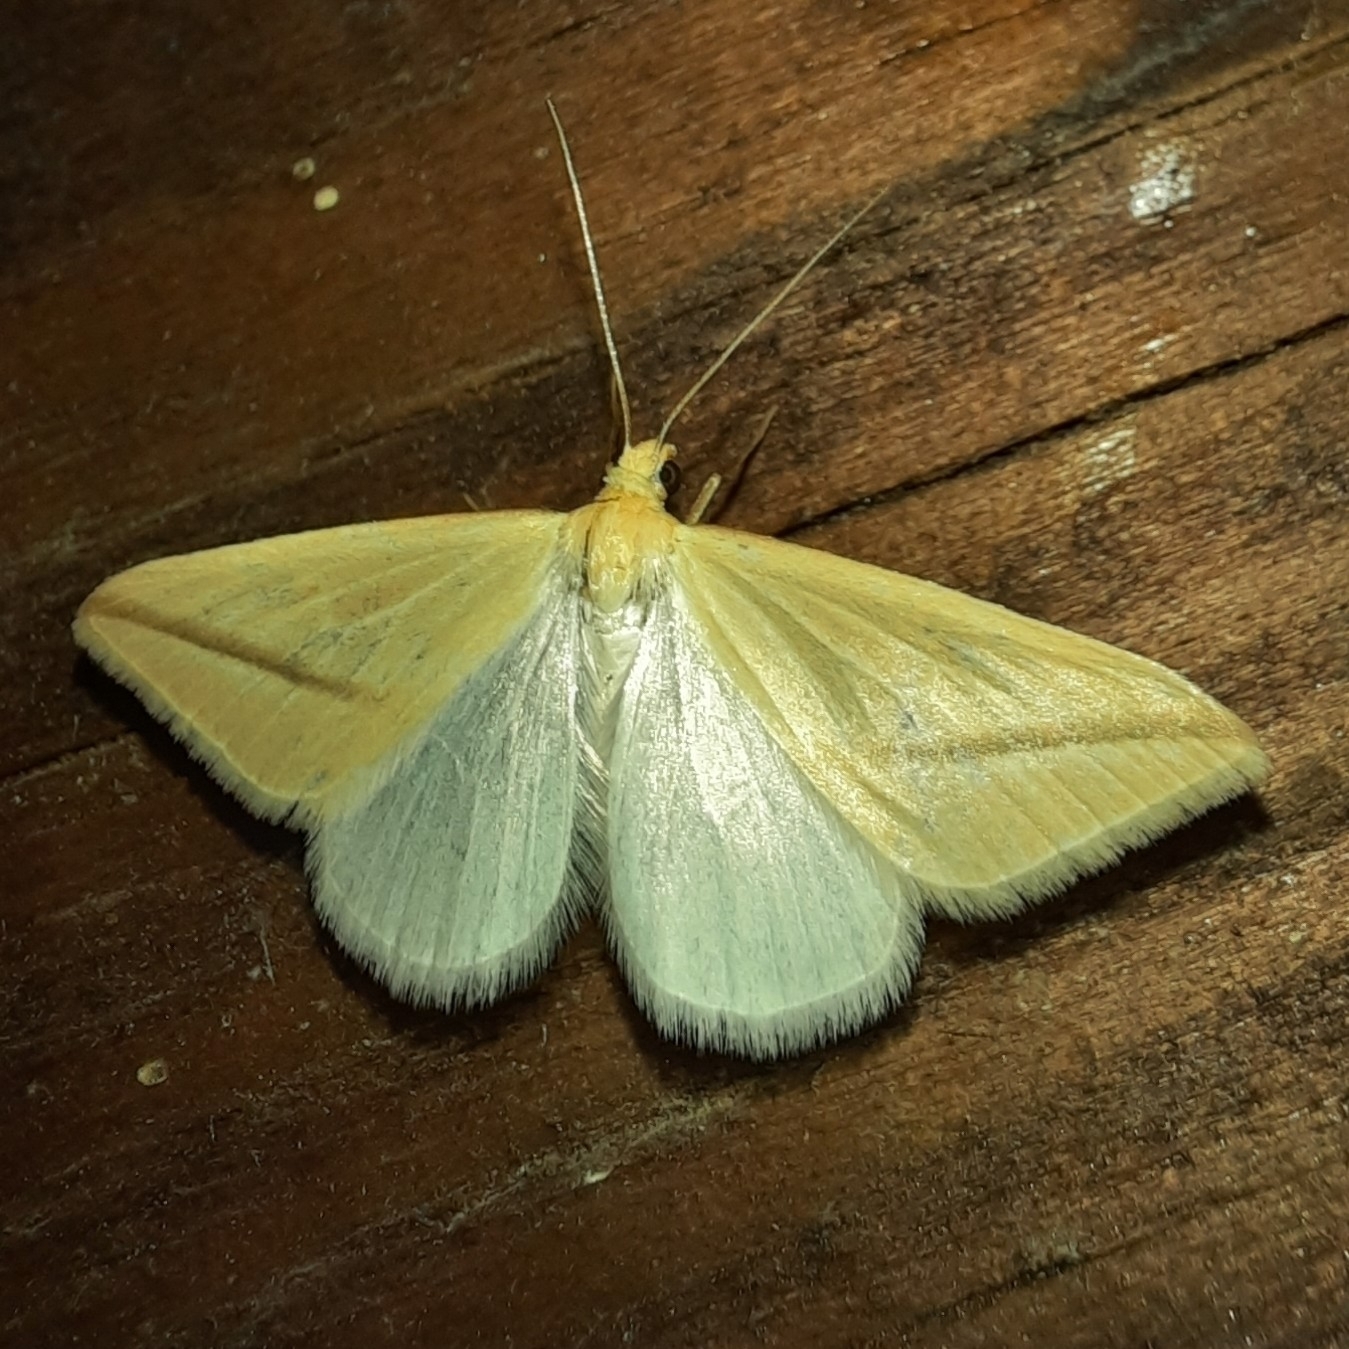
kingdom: Animalia
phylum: Arthropoda
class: Insecta
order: Lepidoptera
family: Geometridae
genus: Rhodometra
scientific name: Rhodometra sacraria
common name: Vestal
